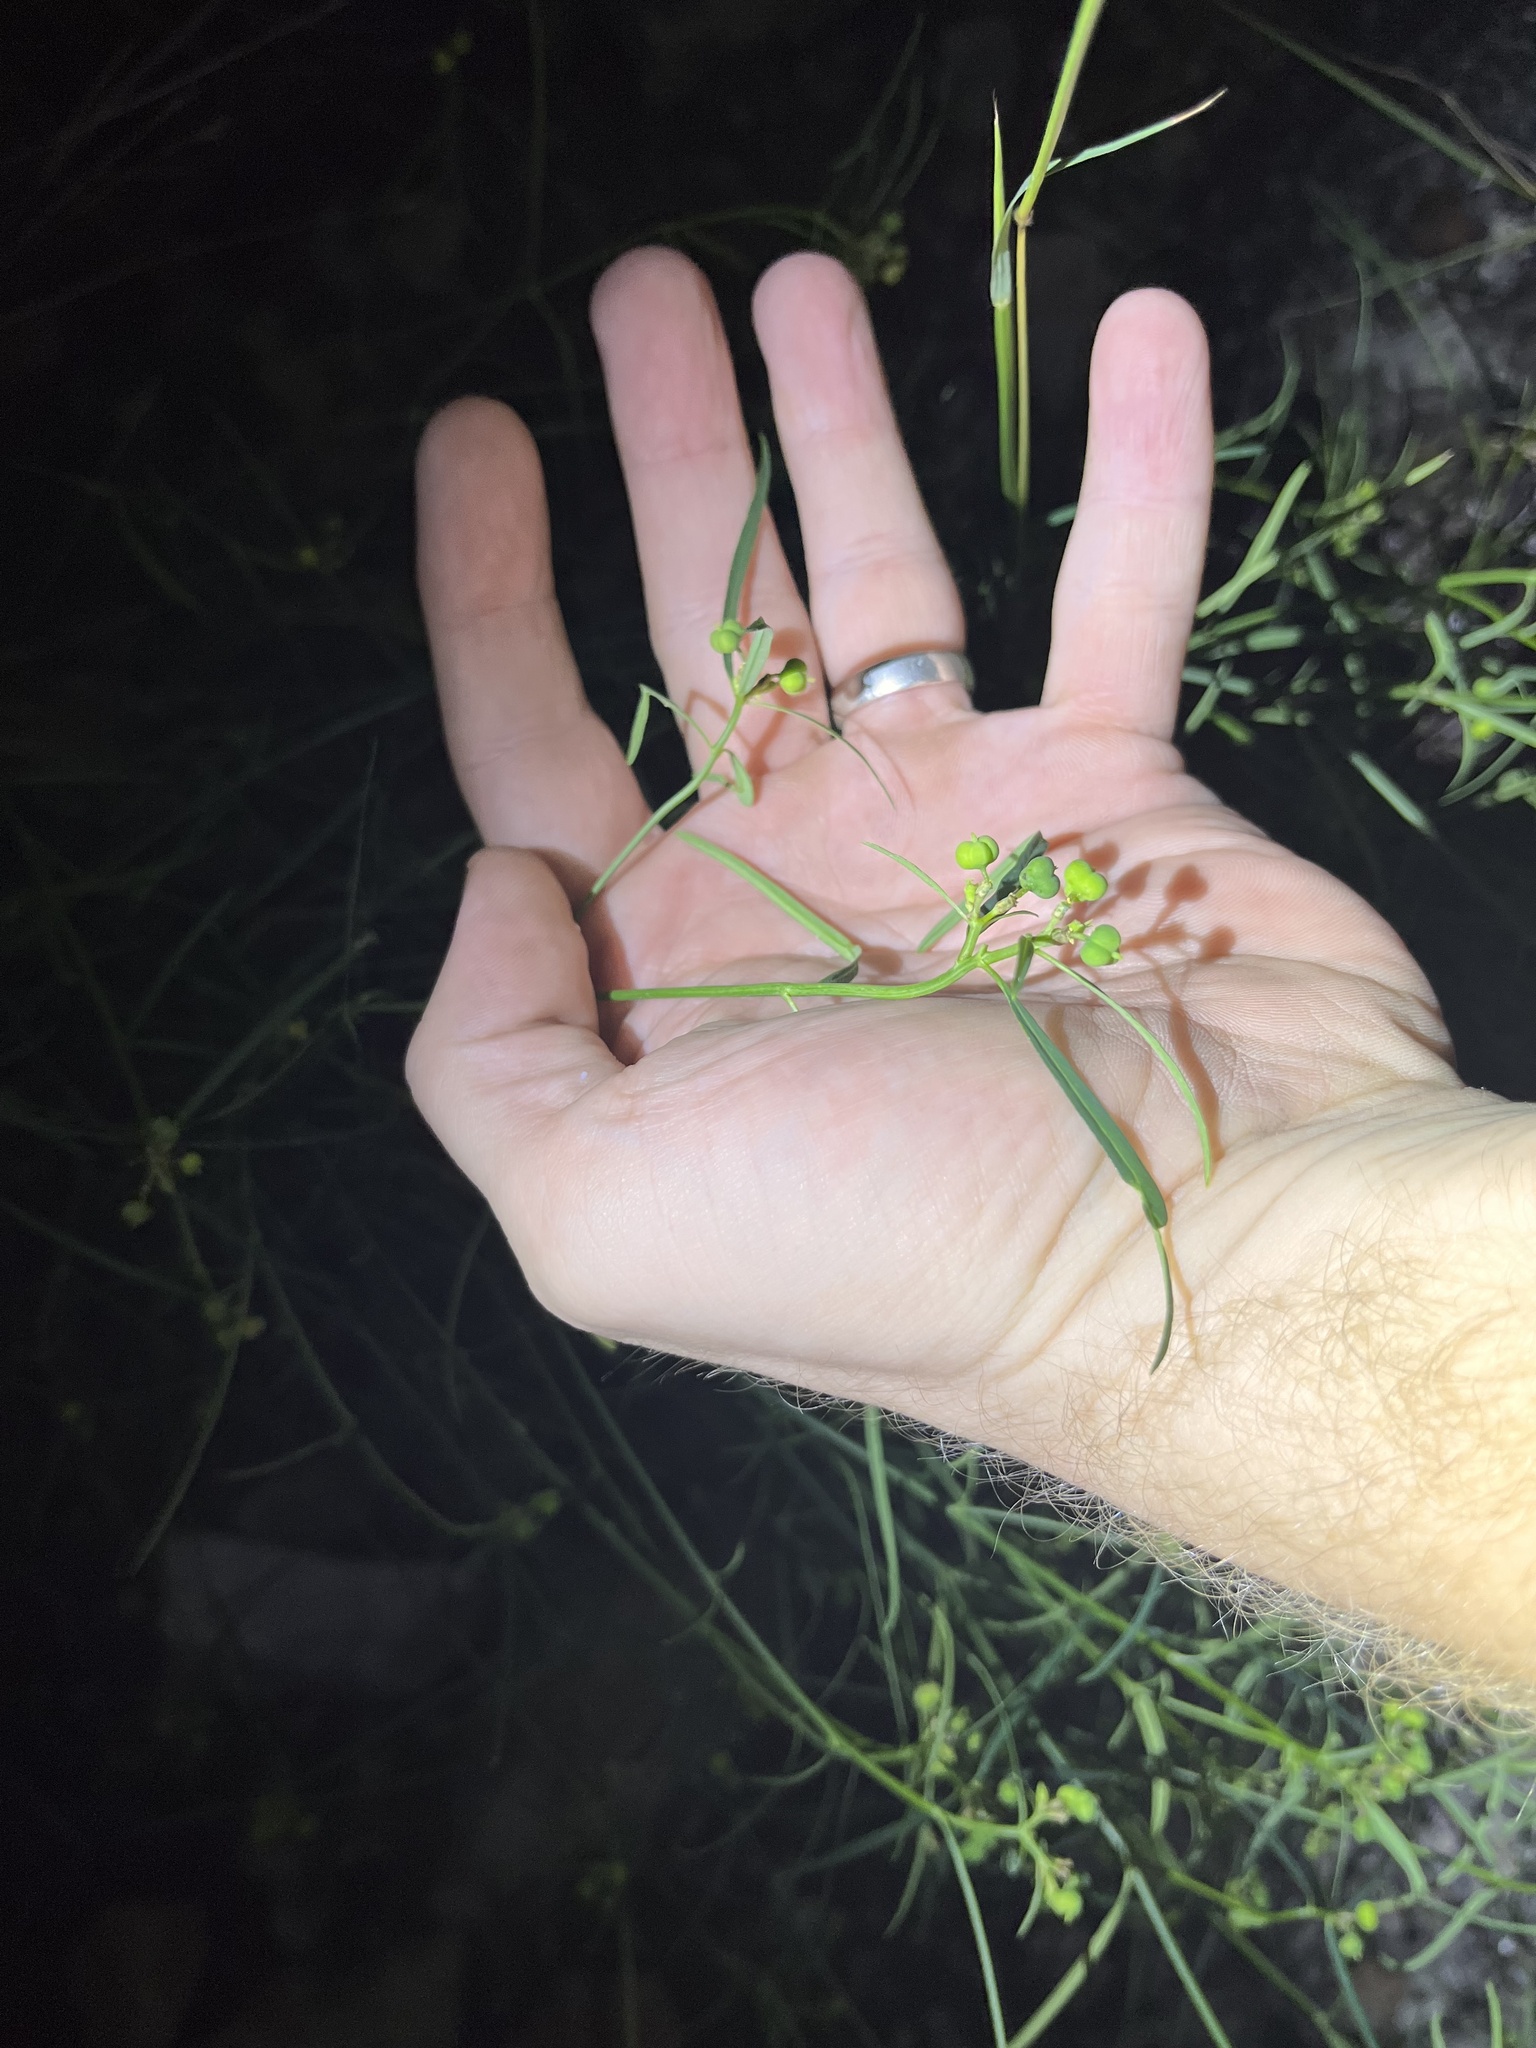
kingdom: Plantae
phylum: Tracheophyta
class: Magnoliopsida
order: Malpighiales
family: Euphorbiaceae
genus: Euphorbia
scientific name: Euphorbia heterophylla
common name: Mexican fireplant
